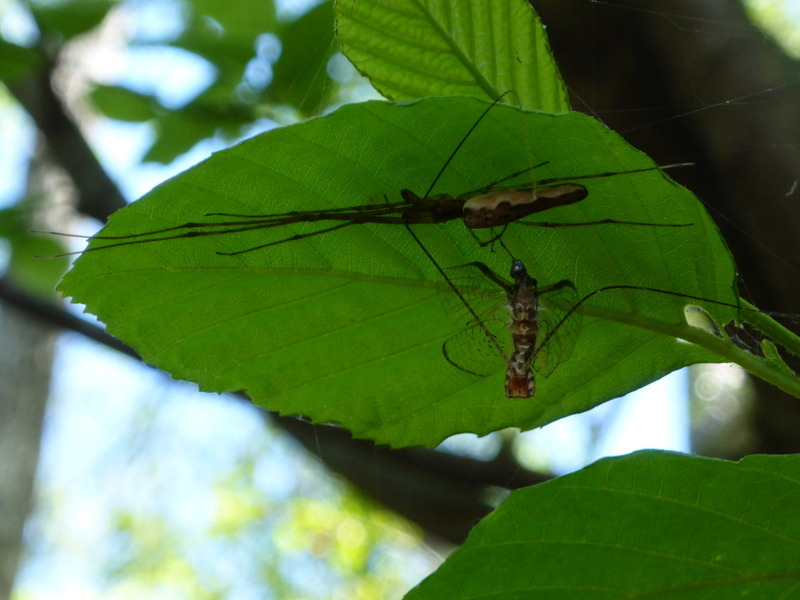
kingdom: Animalia
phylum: Arthropoda
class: Arachnida
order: Araneae
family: Tetragnathidae
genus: Tetragnatha
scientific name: Tetragnatha elongata
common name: Longjawed orb weavers
